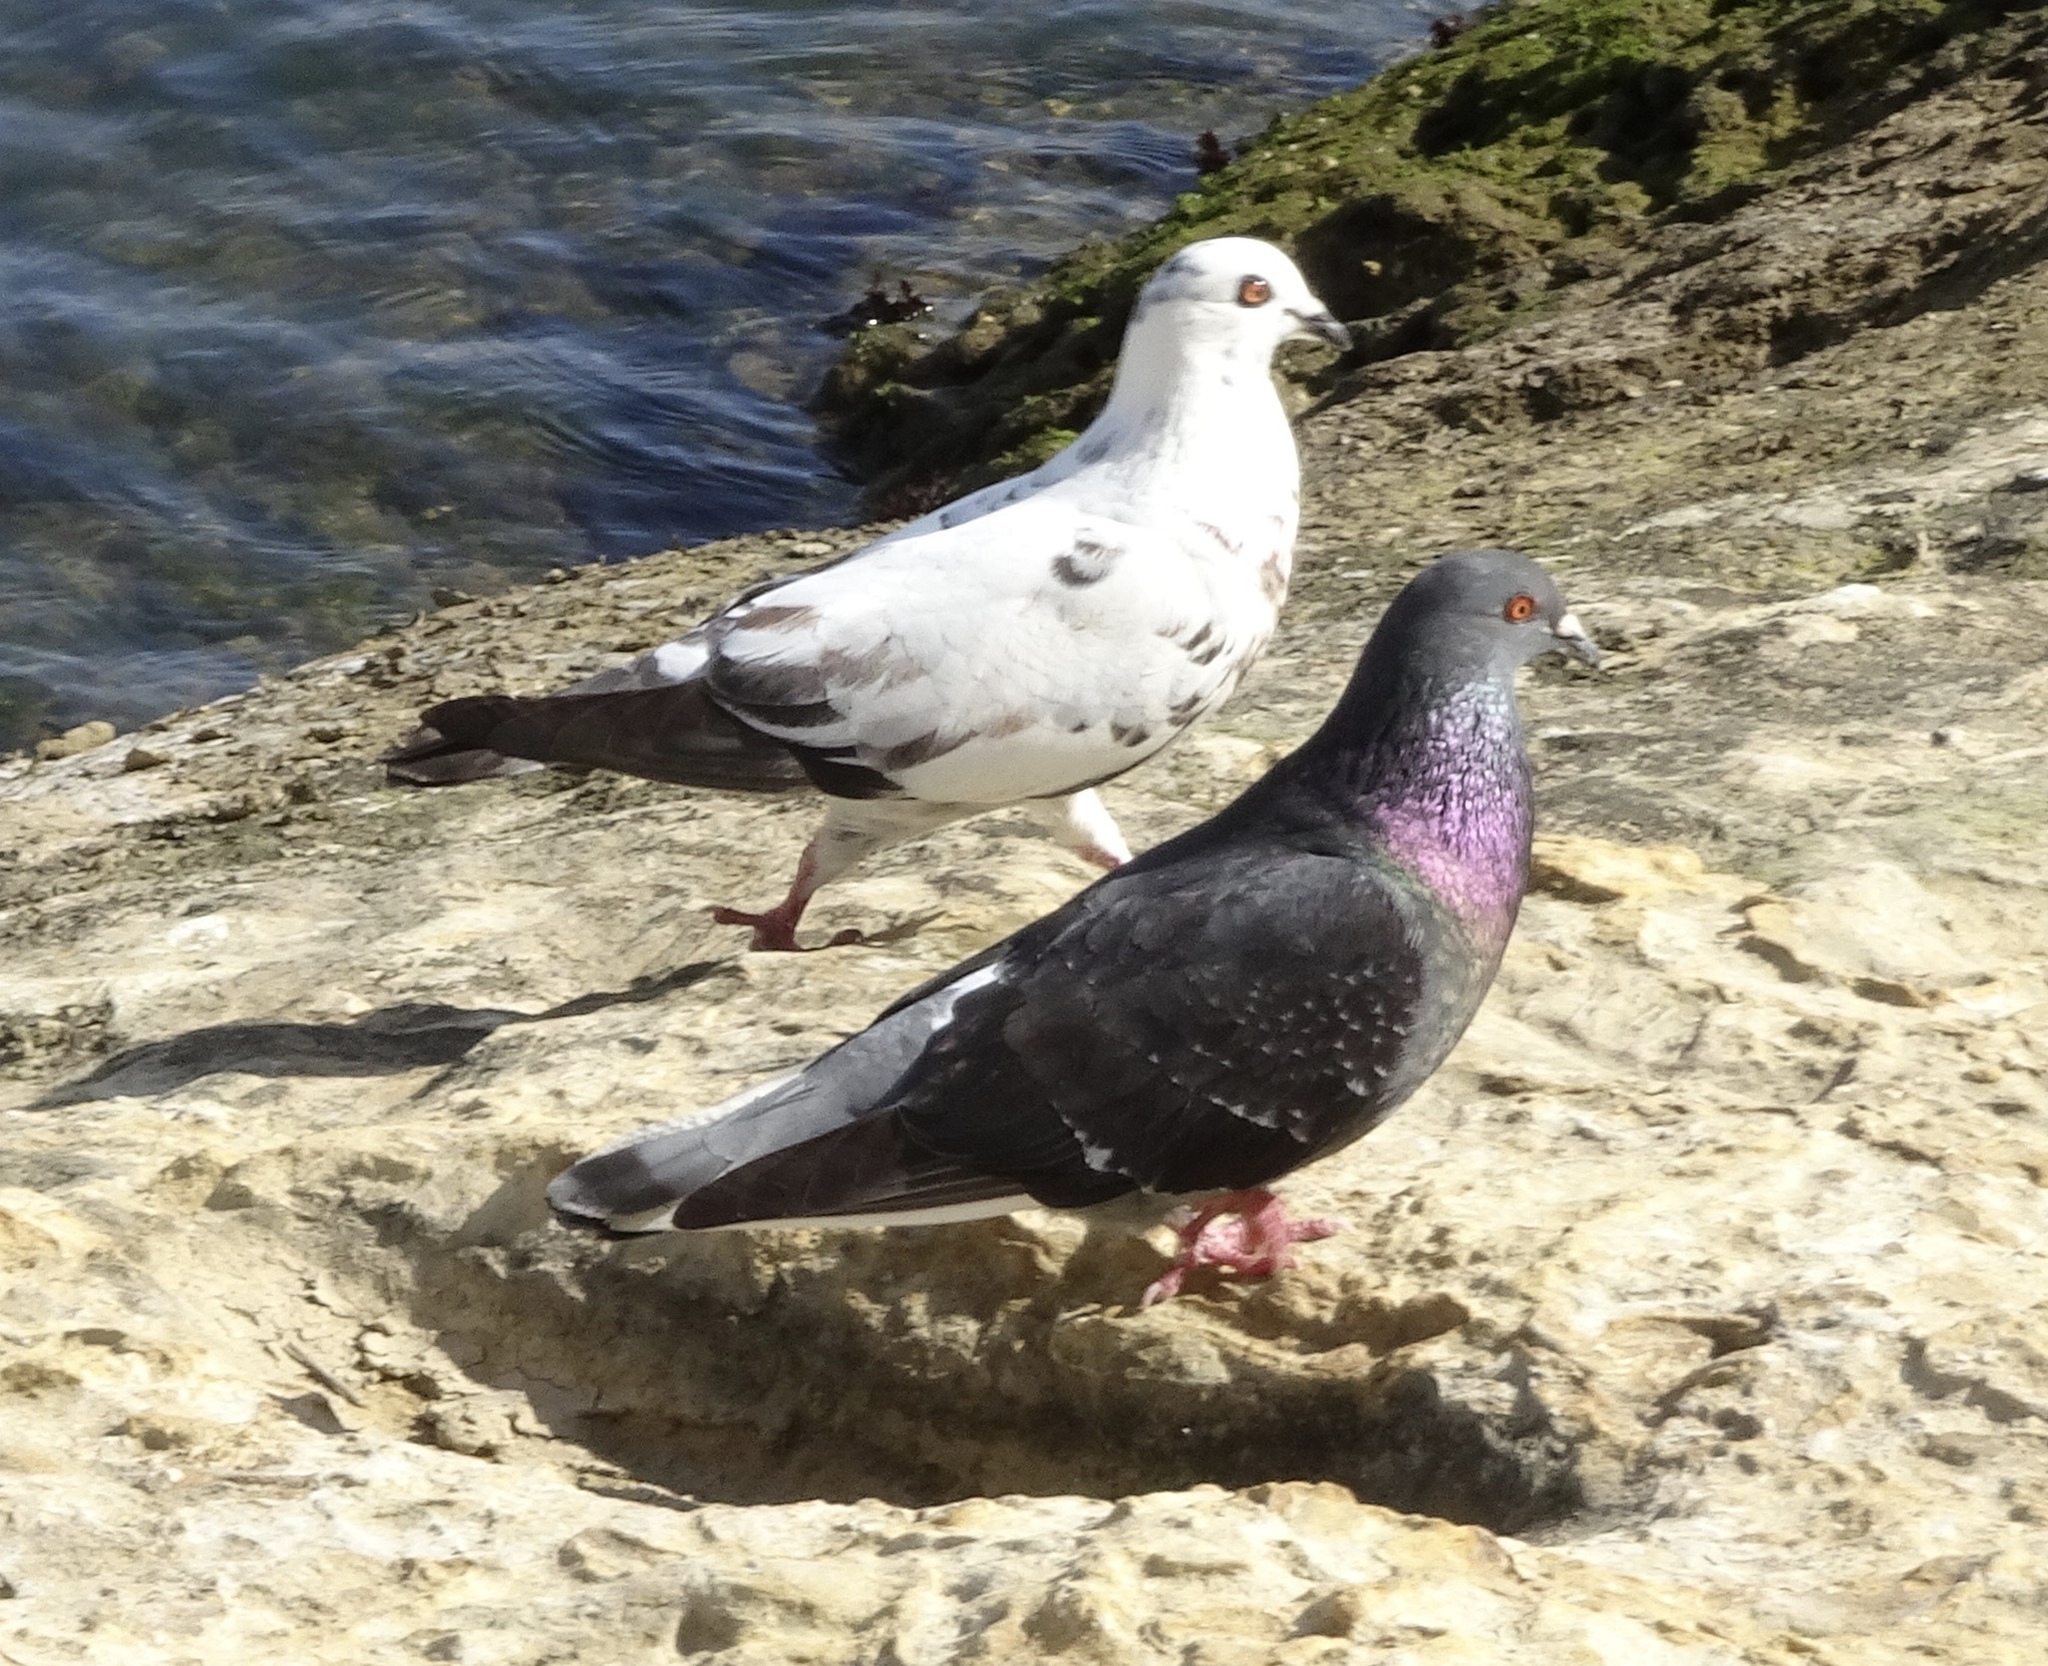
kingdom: Animalia
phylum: Chordata
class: Aves
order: Columbiformes
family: Columbidae
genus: Columba
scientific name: Columba livia
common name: Rock pigeon
